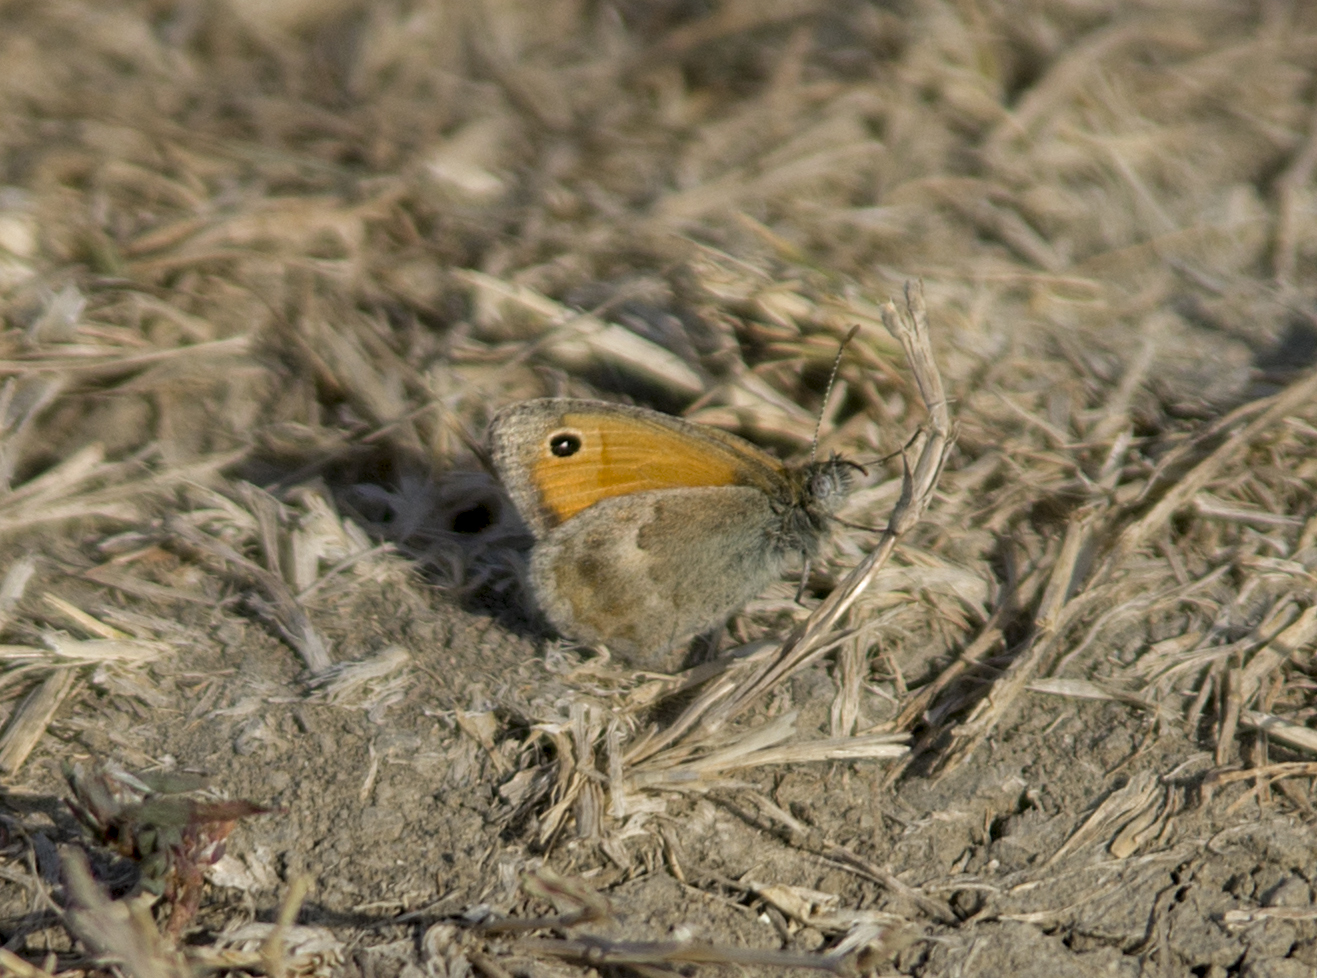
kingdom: Animalia
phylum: Arthropoda
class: Insecta
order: Lepidoptera
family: Nymphalidae
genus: Coenonympha
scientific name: Coenonympha pamphilus
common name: Small heath
